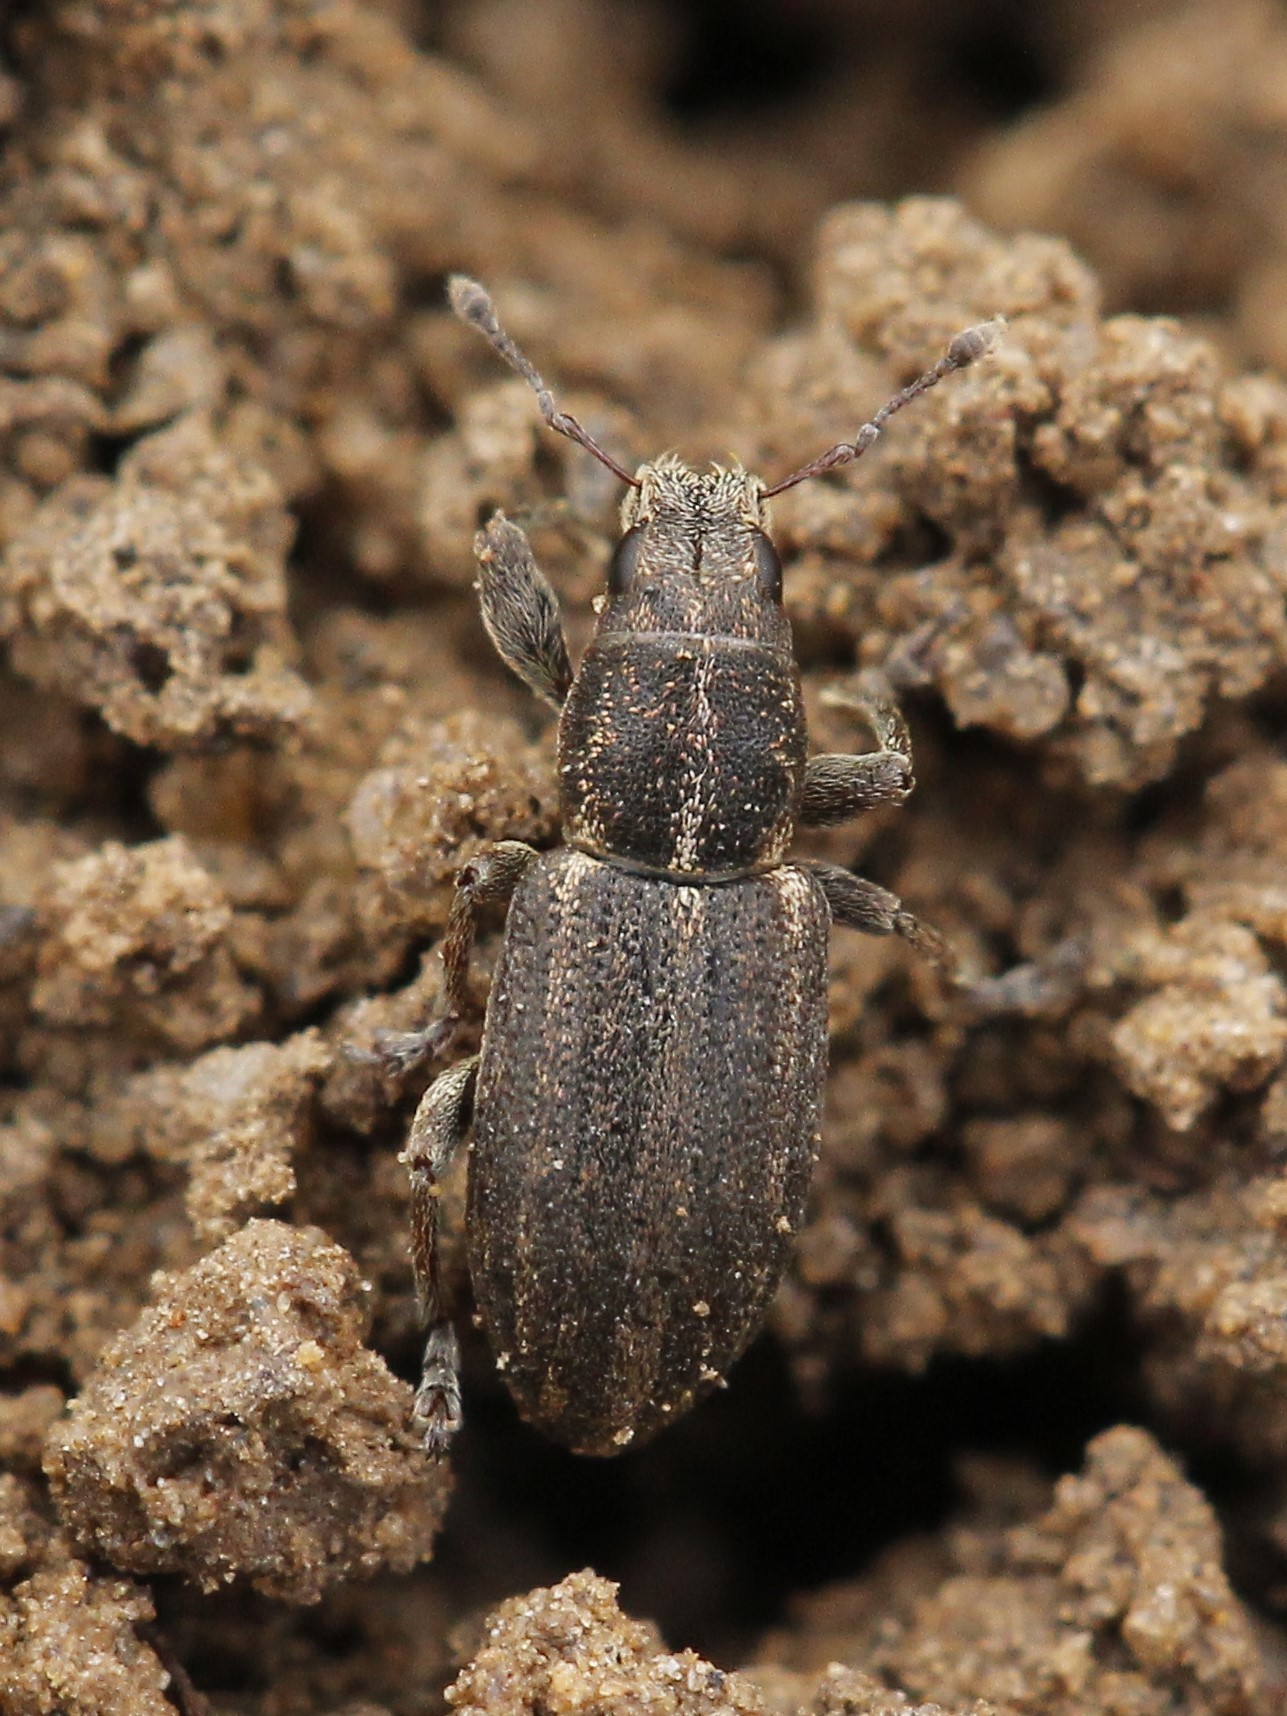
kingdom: Animalia
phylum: Arthropoda
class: Insecta
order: Coleoptera
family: Curculionidae
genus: Sitona
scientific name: Sitona inops
